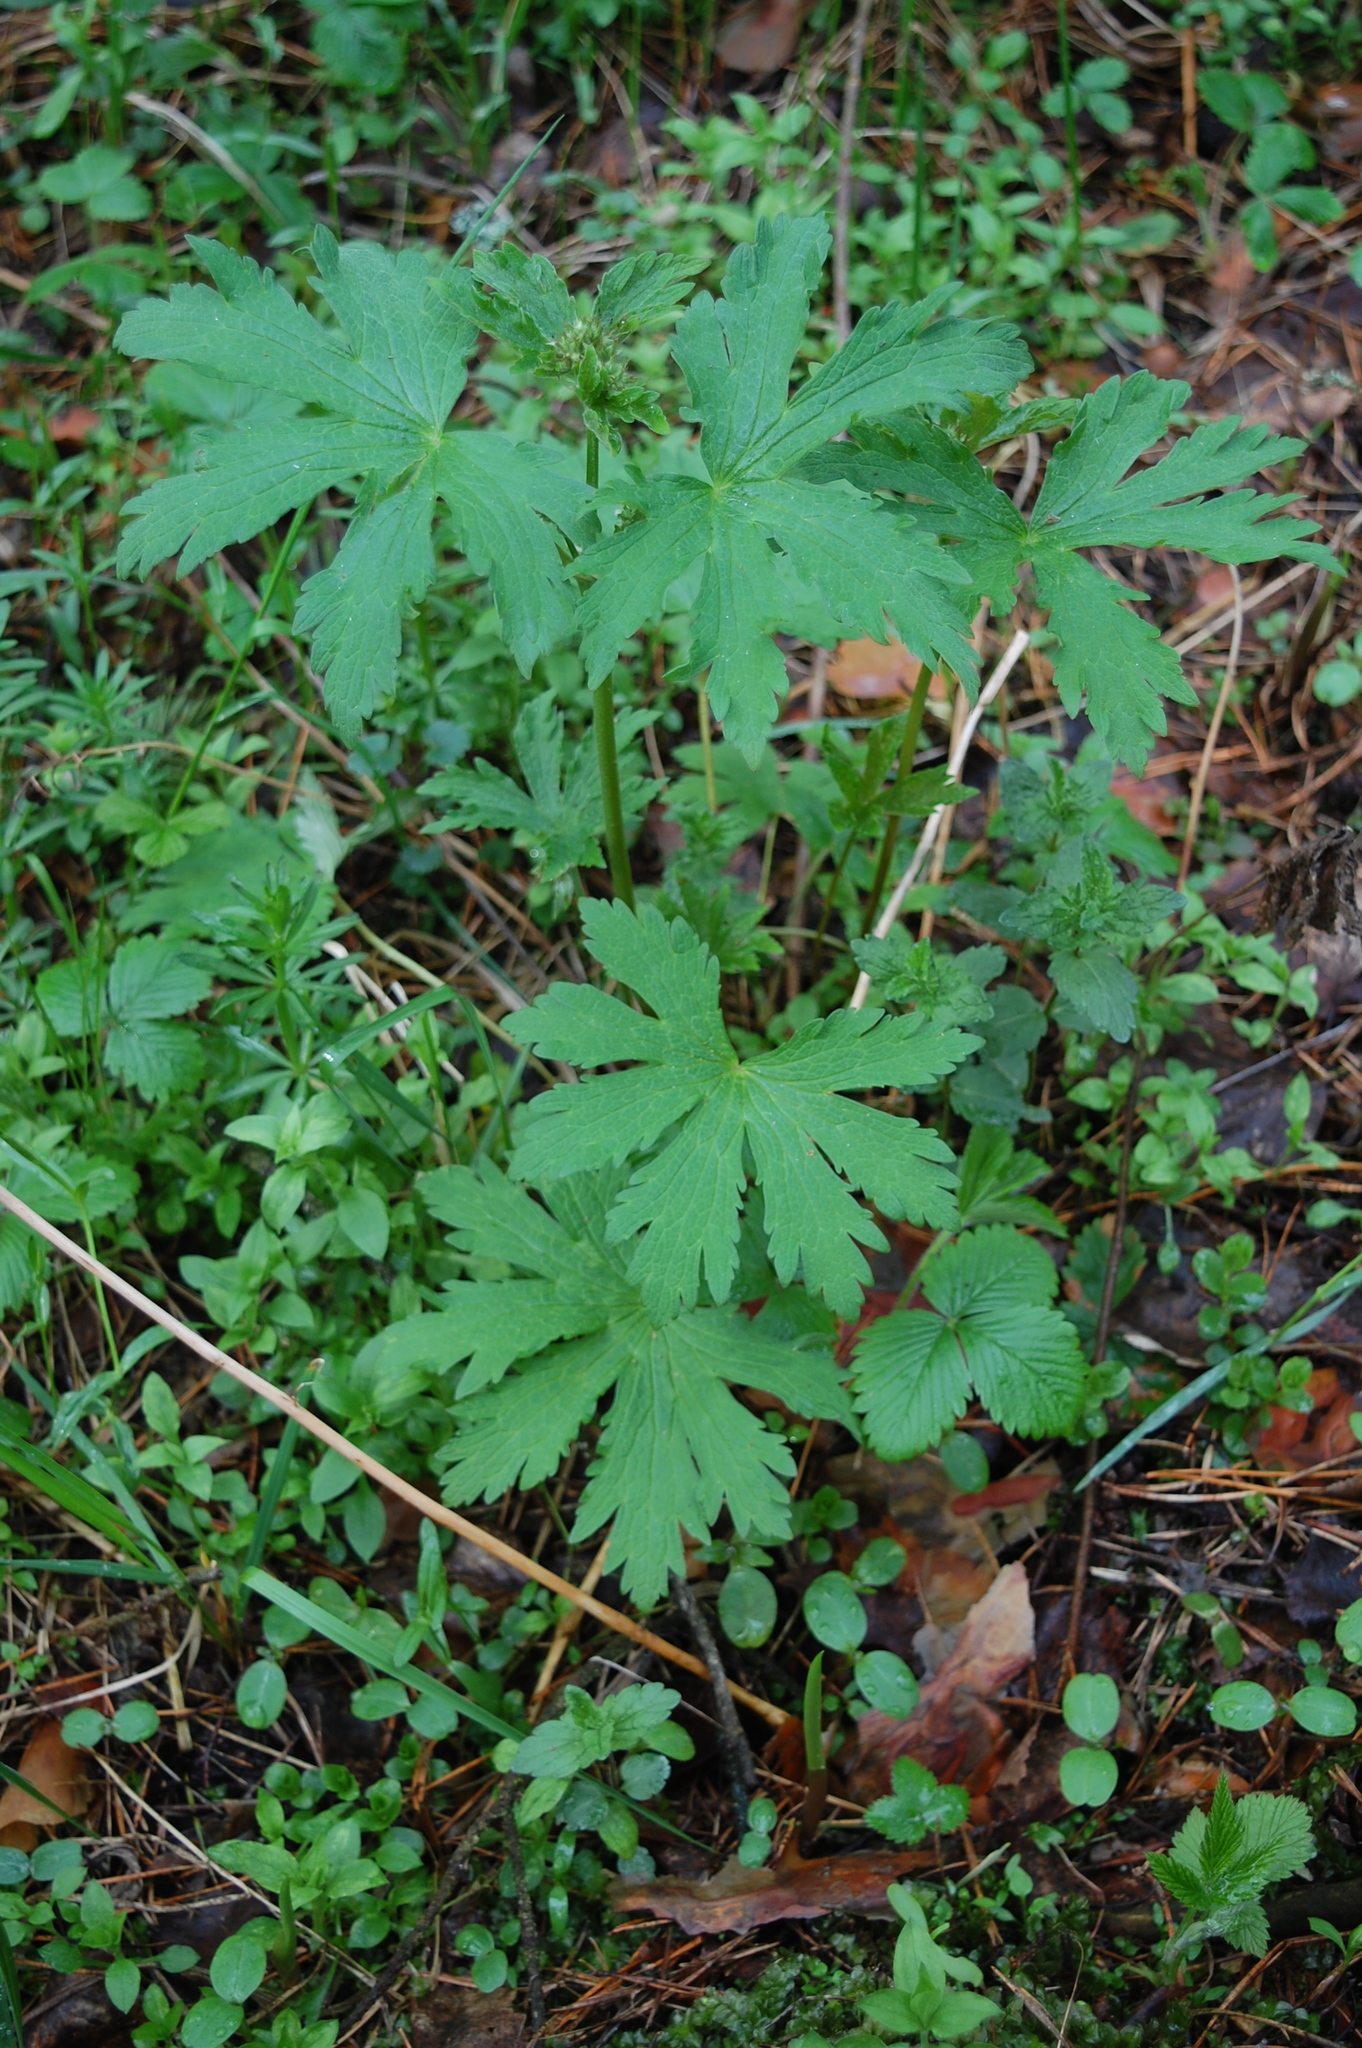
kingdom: Plantae
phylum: Tracheophyta
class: Magnoliopsida
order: Geraniales
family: Geraniaceae
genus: Geranium
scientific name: Geranium sylvaticum
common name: Wood crane's-bill
